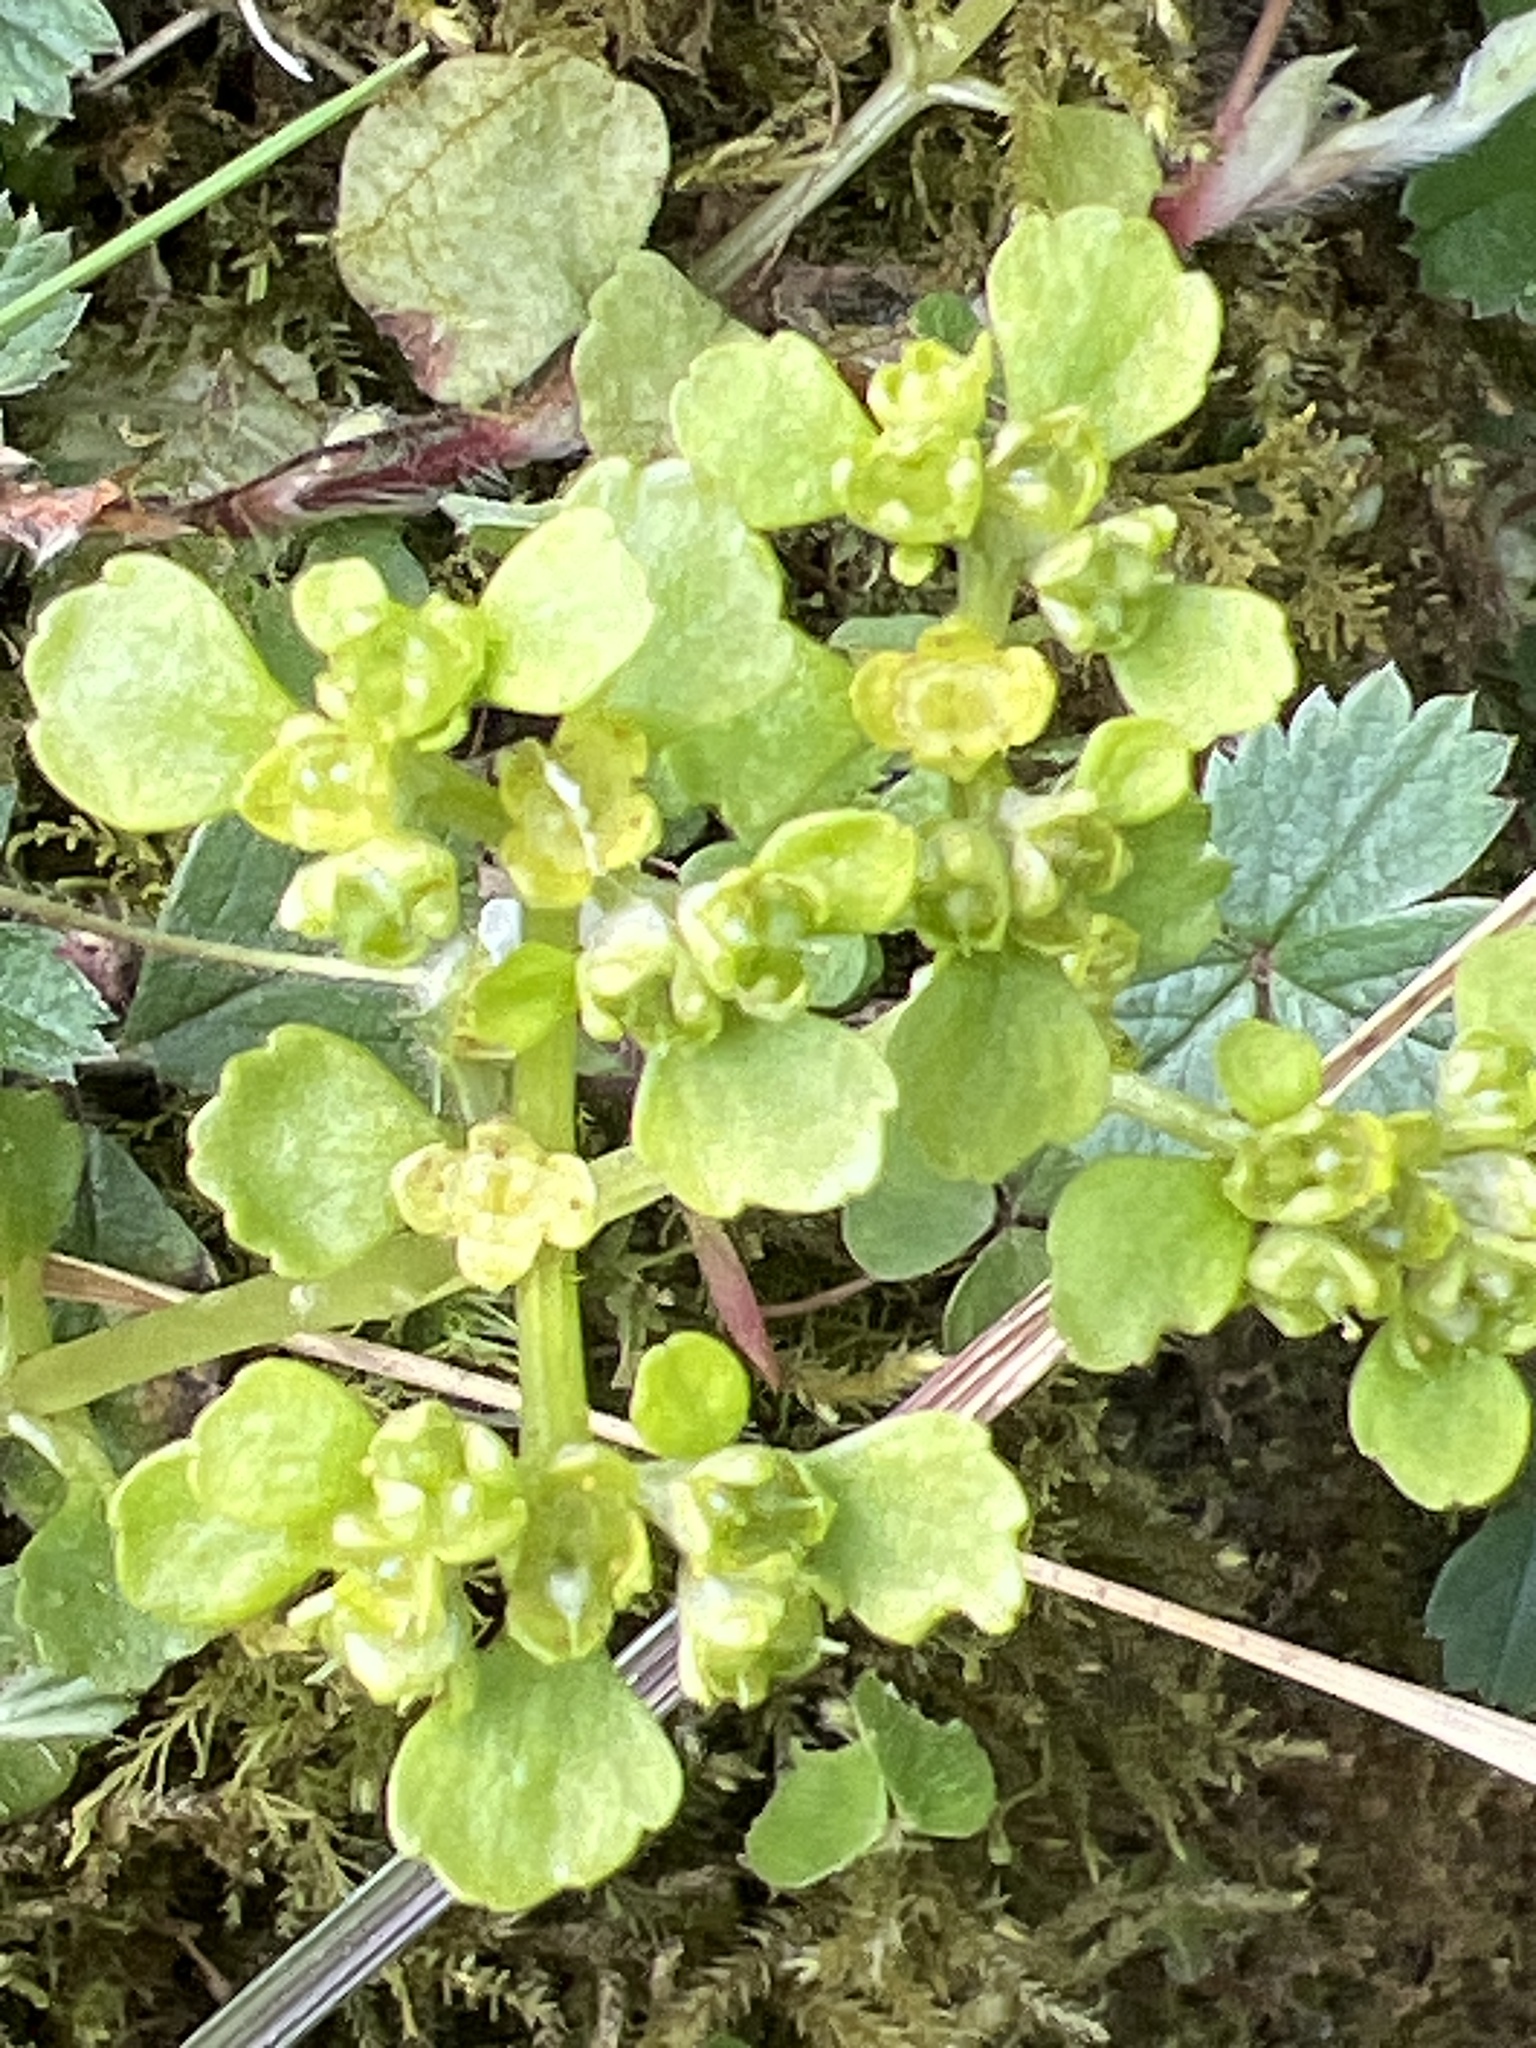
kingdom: Plantae
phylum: Tracheophyta
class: Magnoliopsida
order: Saxifragales
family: Saxifragaceae
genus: Chrysosplenium
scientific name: Chrysosplenium oppositifolium
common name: Opposite-leaved golden-saxifrage
